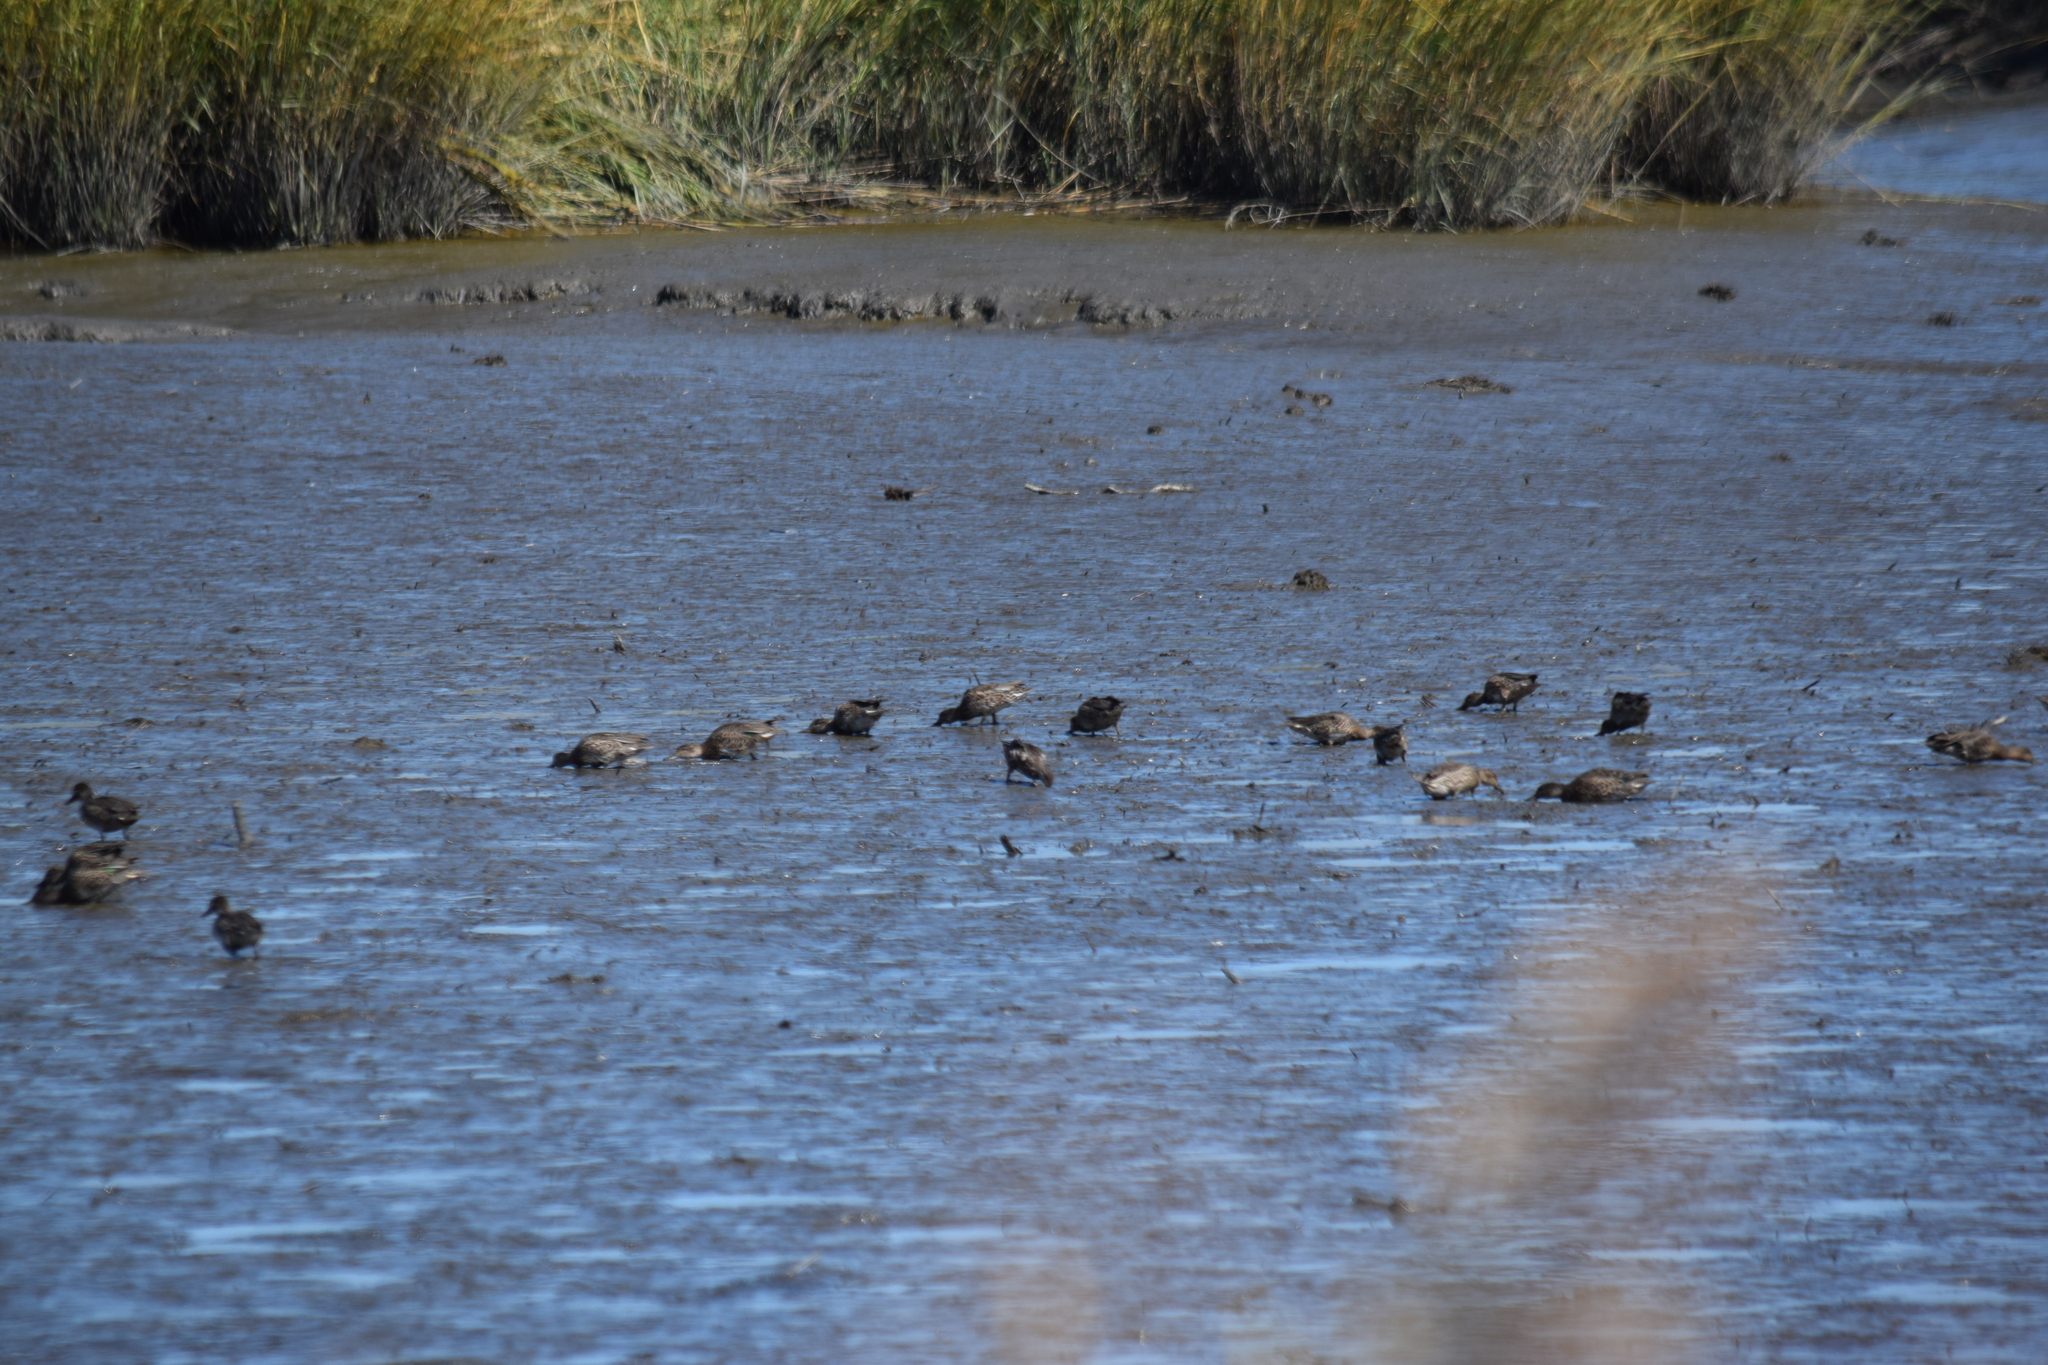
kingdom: Animalia
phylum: Chordata
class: Aves
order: Anseriformes
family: Anatidae
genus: Anas
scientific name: Anas crecca
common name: Eurasian teal
